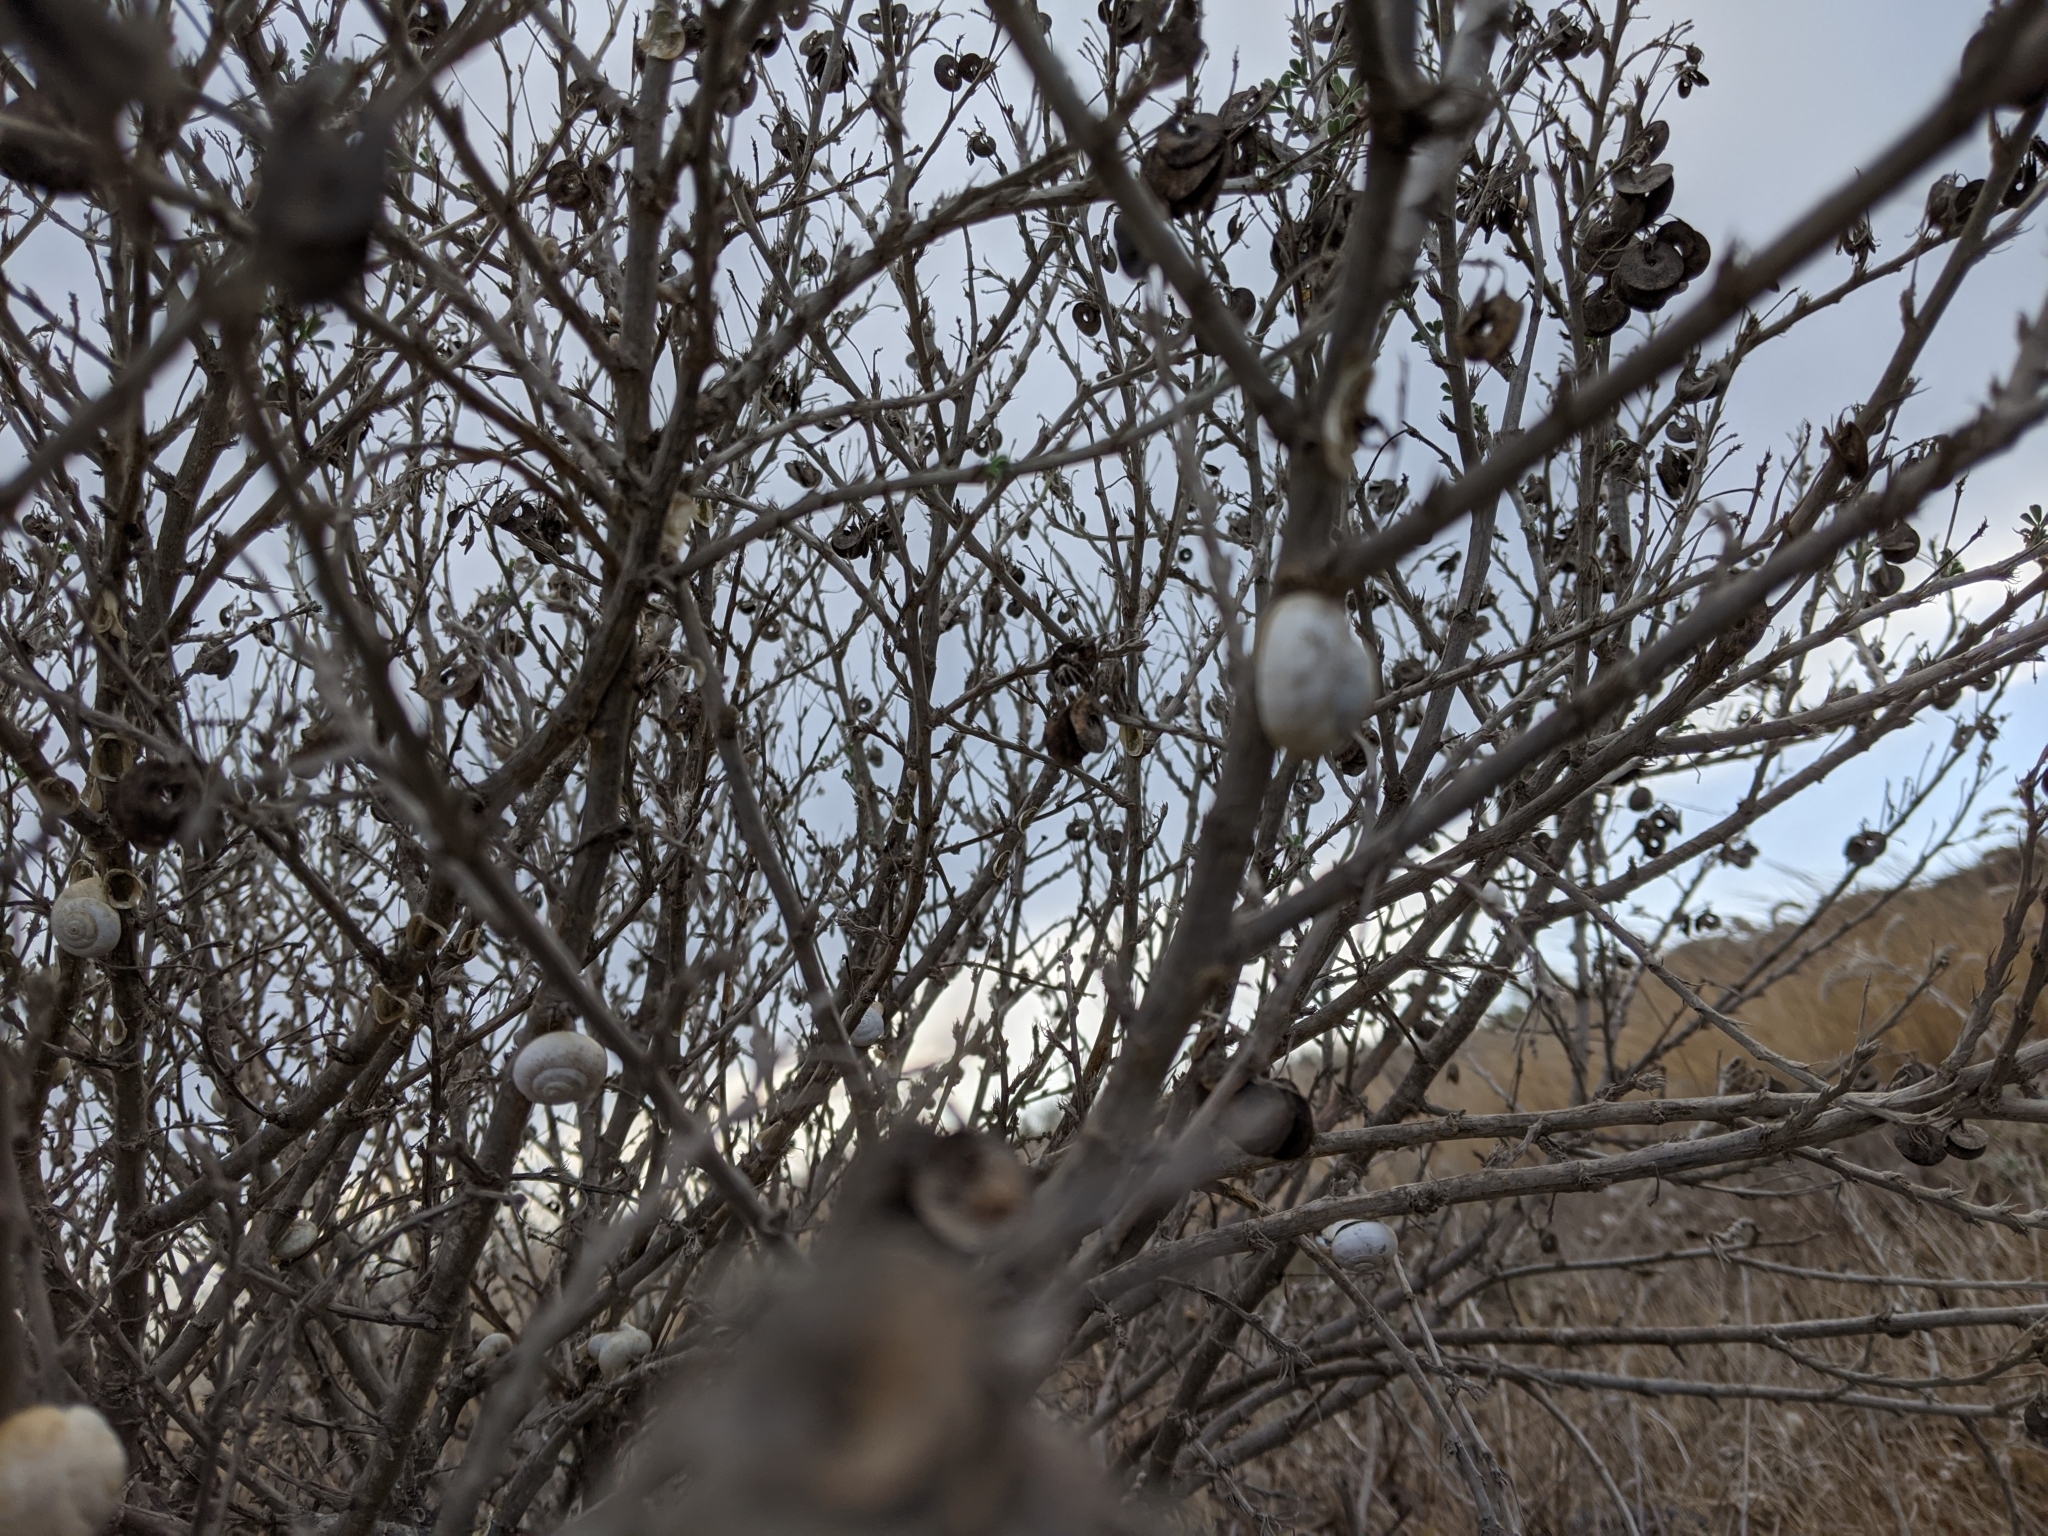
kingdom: Animalia
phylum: Mollusca
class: Gastropoda
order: Stylommatophora
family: Helicidae
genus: Theba
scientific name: Theba pisana
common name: White snail
